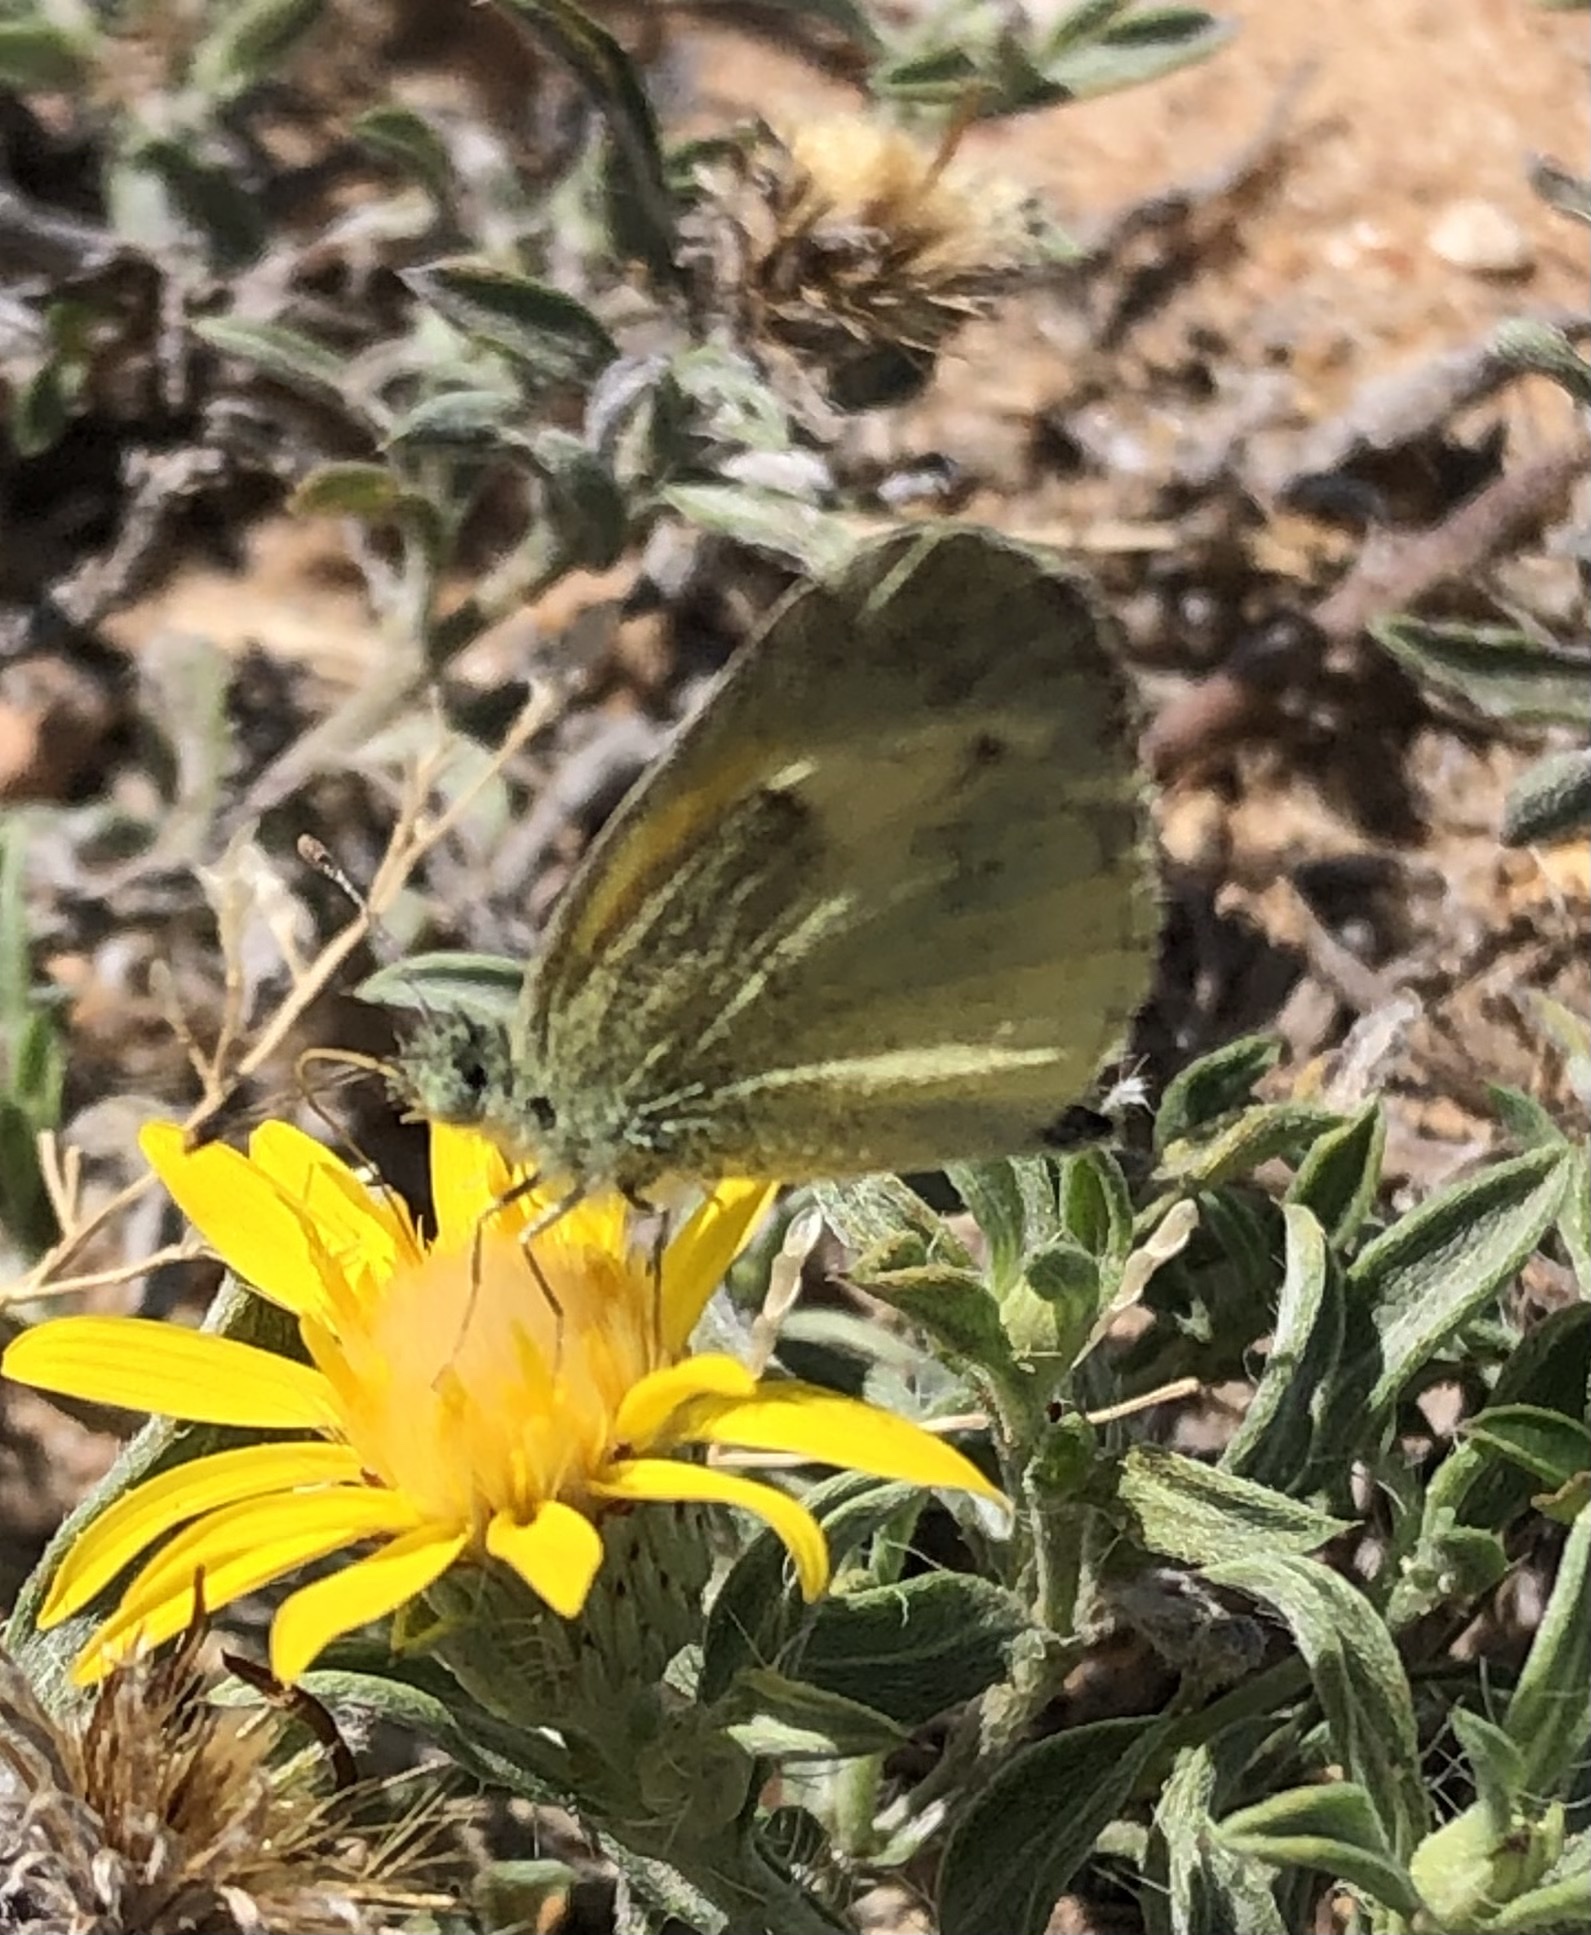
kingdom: Animalia
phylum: Arthropoda
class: Insecta
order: Lepidoptera
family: Pieridae
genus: Nathalis
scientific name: Nathalis iole
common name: Dainty sulphur
